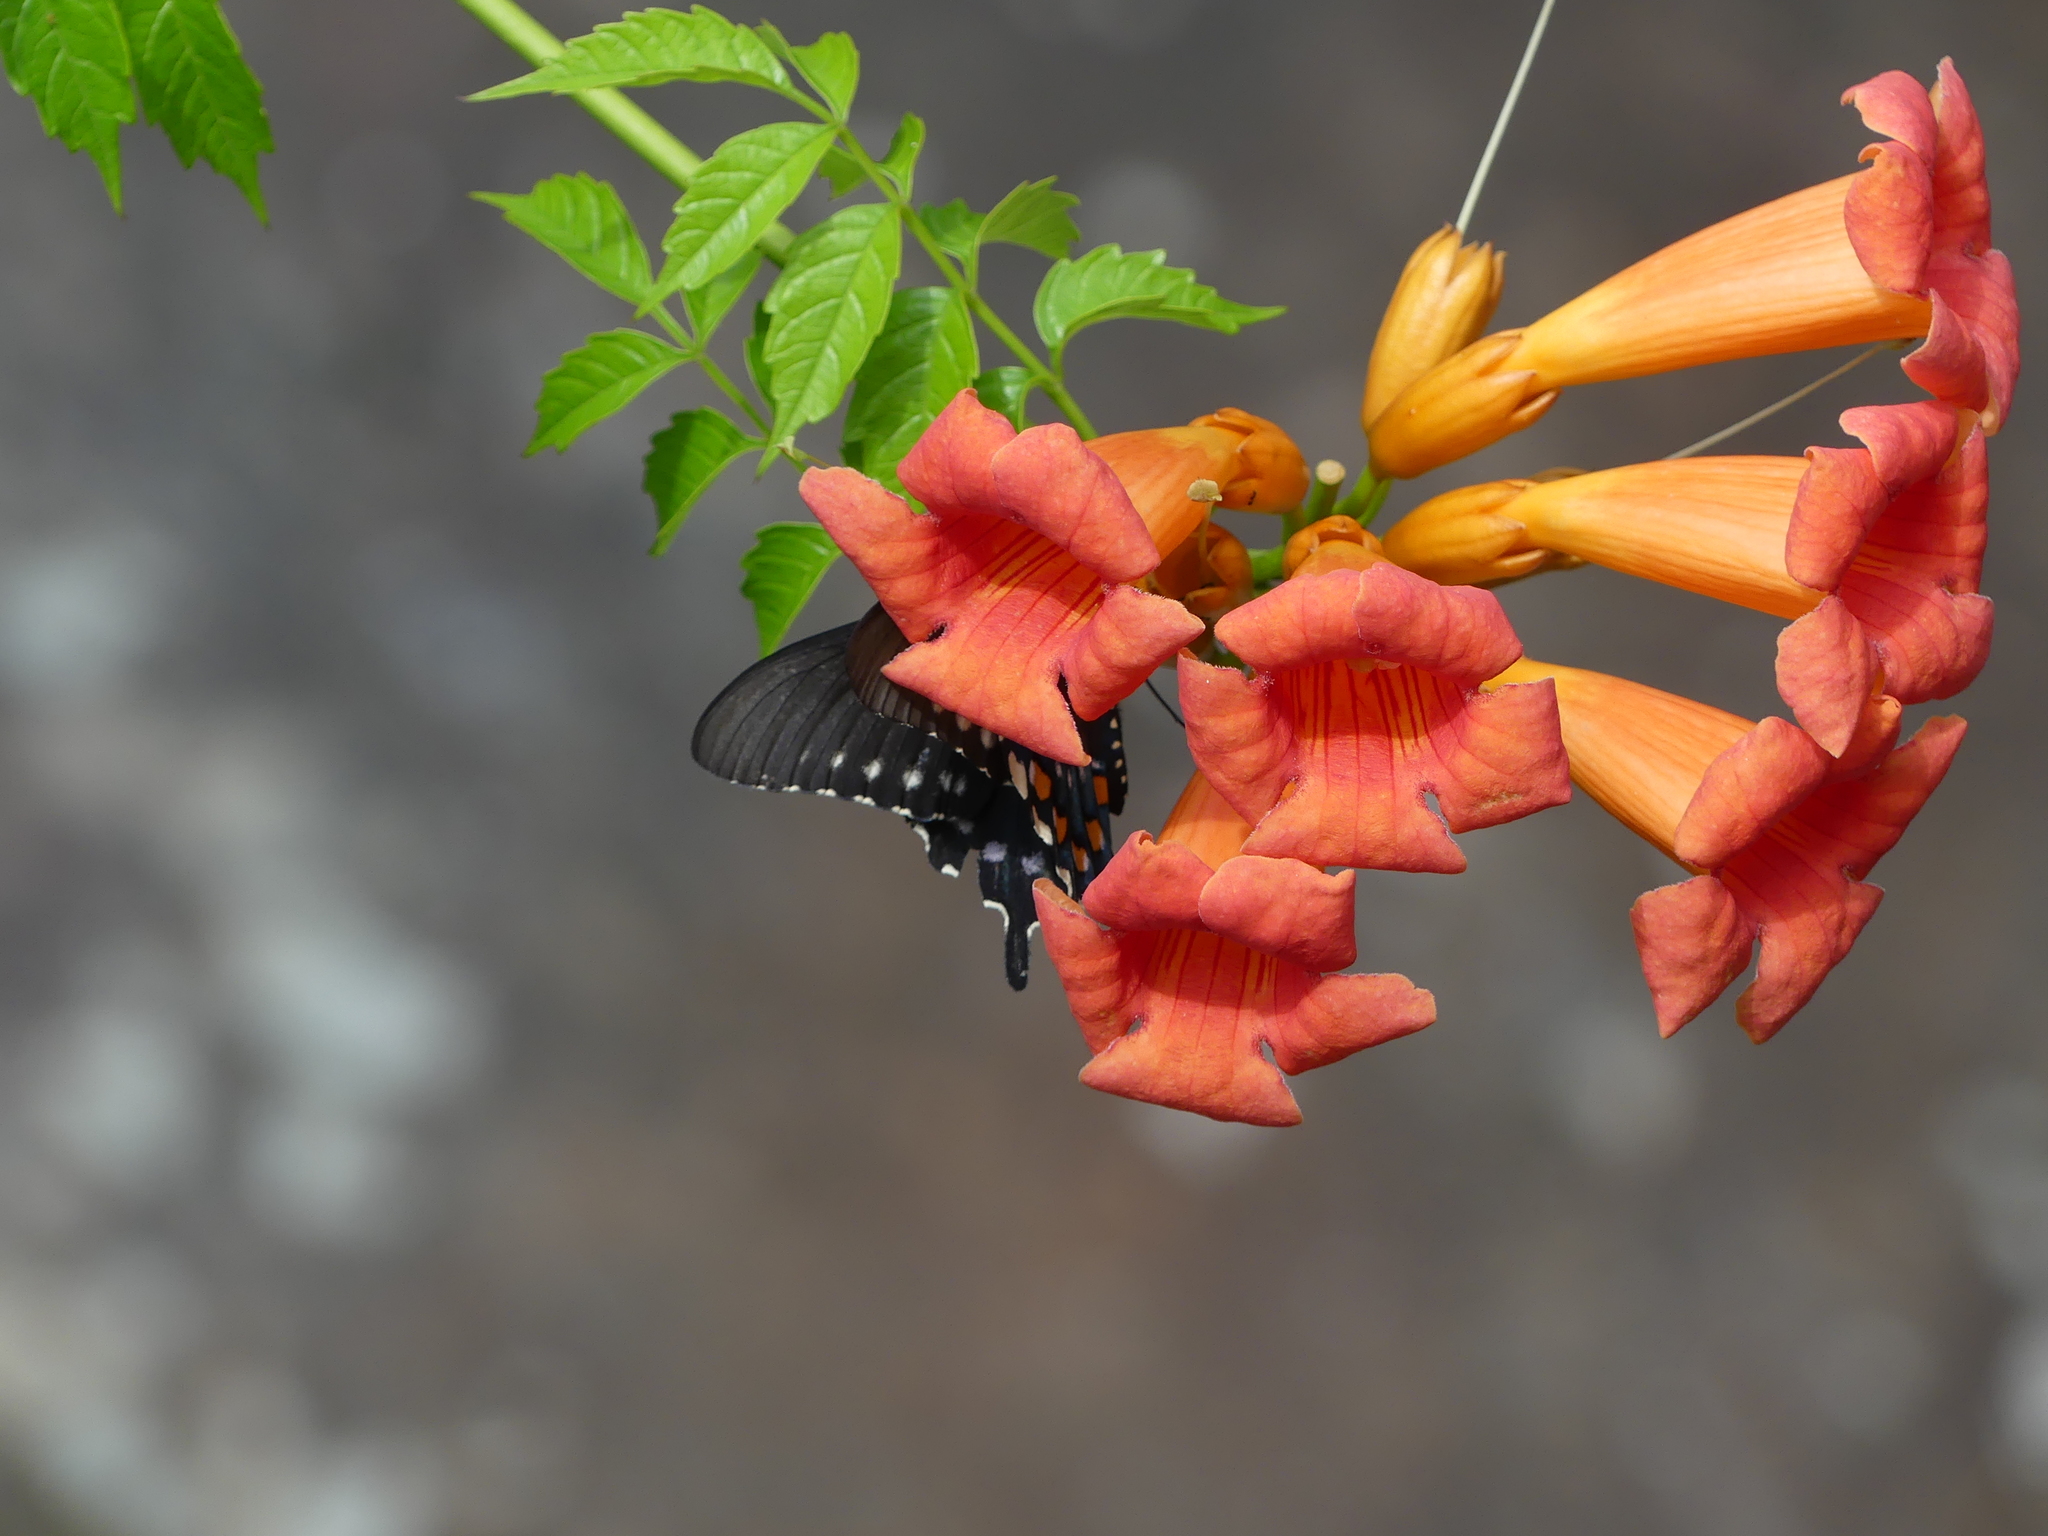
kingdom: Plantae
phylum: Tracheophyta
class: Magnoliopsida
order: Lamiales
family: Bignoniaceae
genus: Campsis
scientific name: Campsis radicans
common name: Trumpet-creeper
